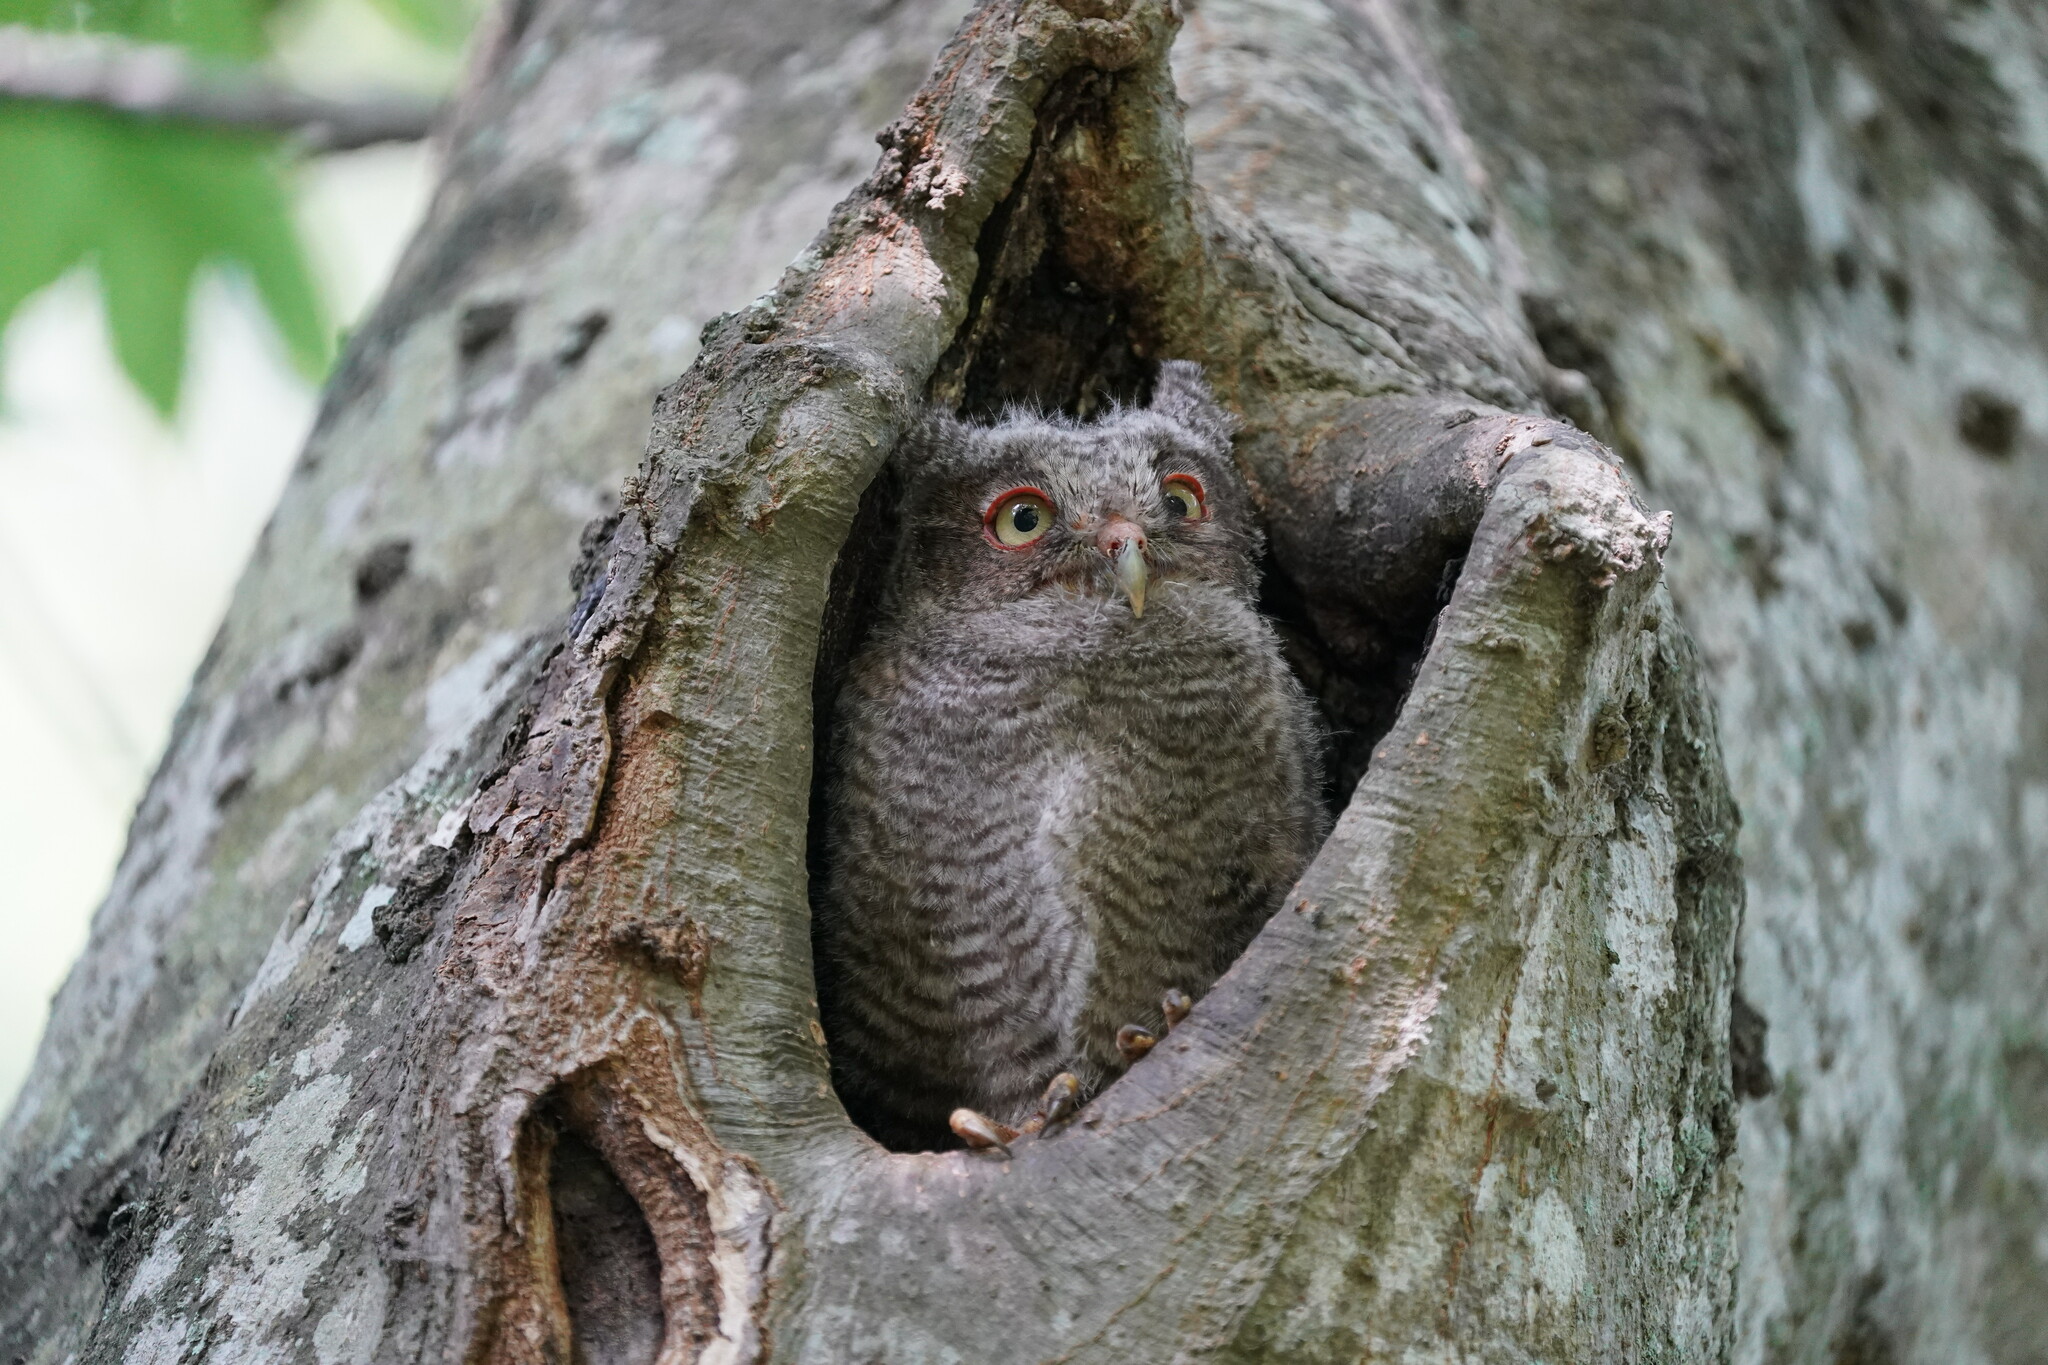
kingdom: Animalia
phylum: Chordata
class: Aves
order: Strigiformes
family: Strigidae
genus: Megascops
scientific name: Megascops asio
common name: Eastern screech-owl
